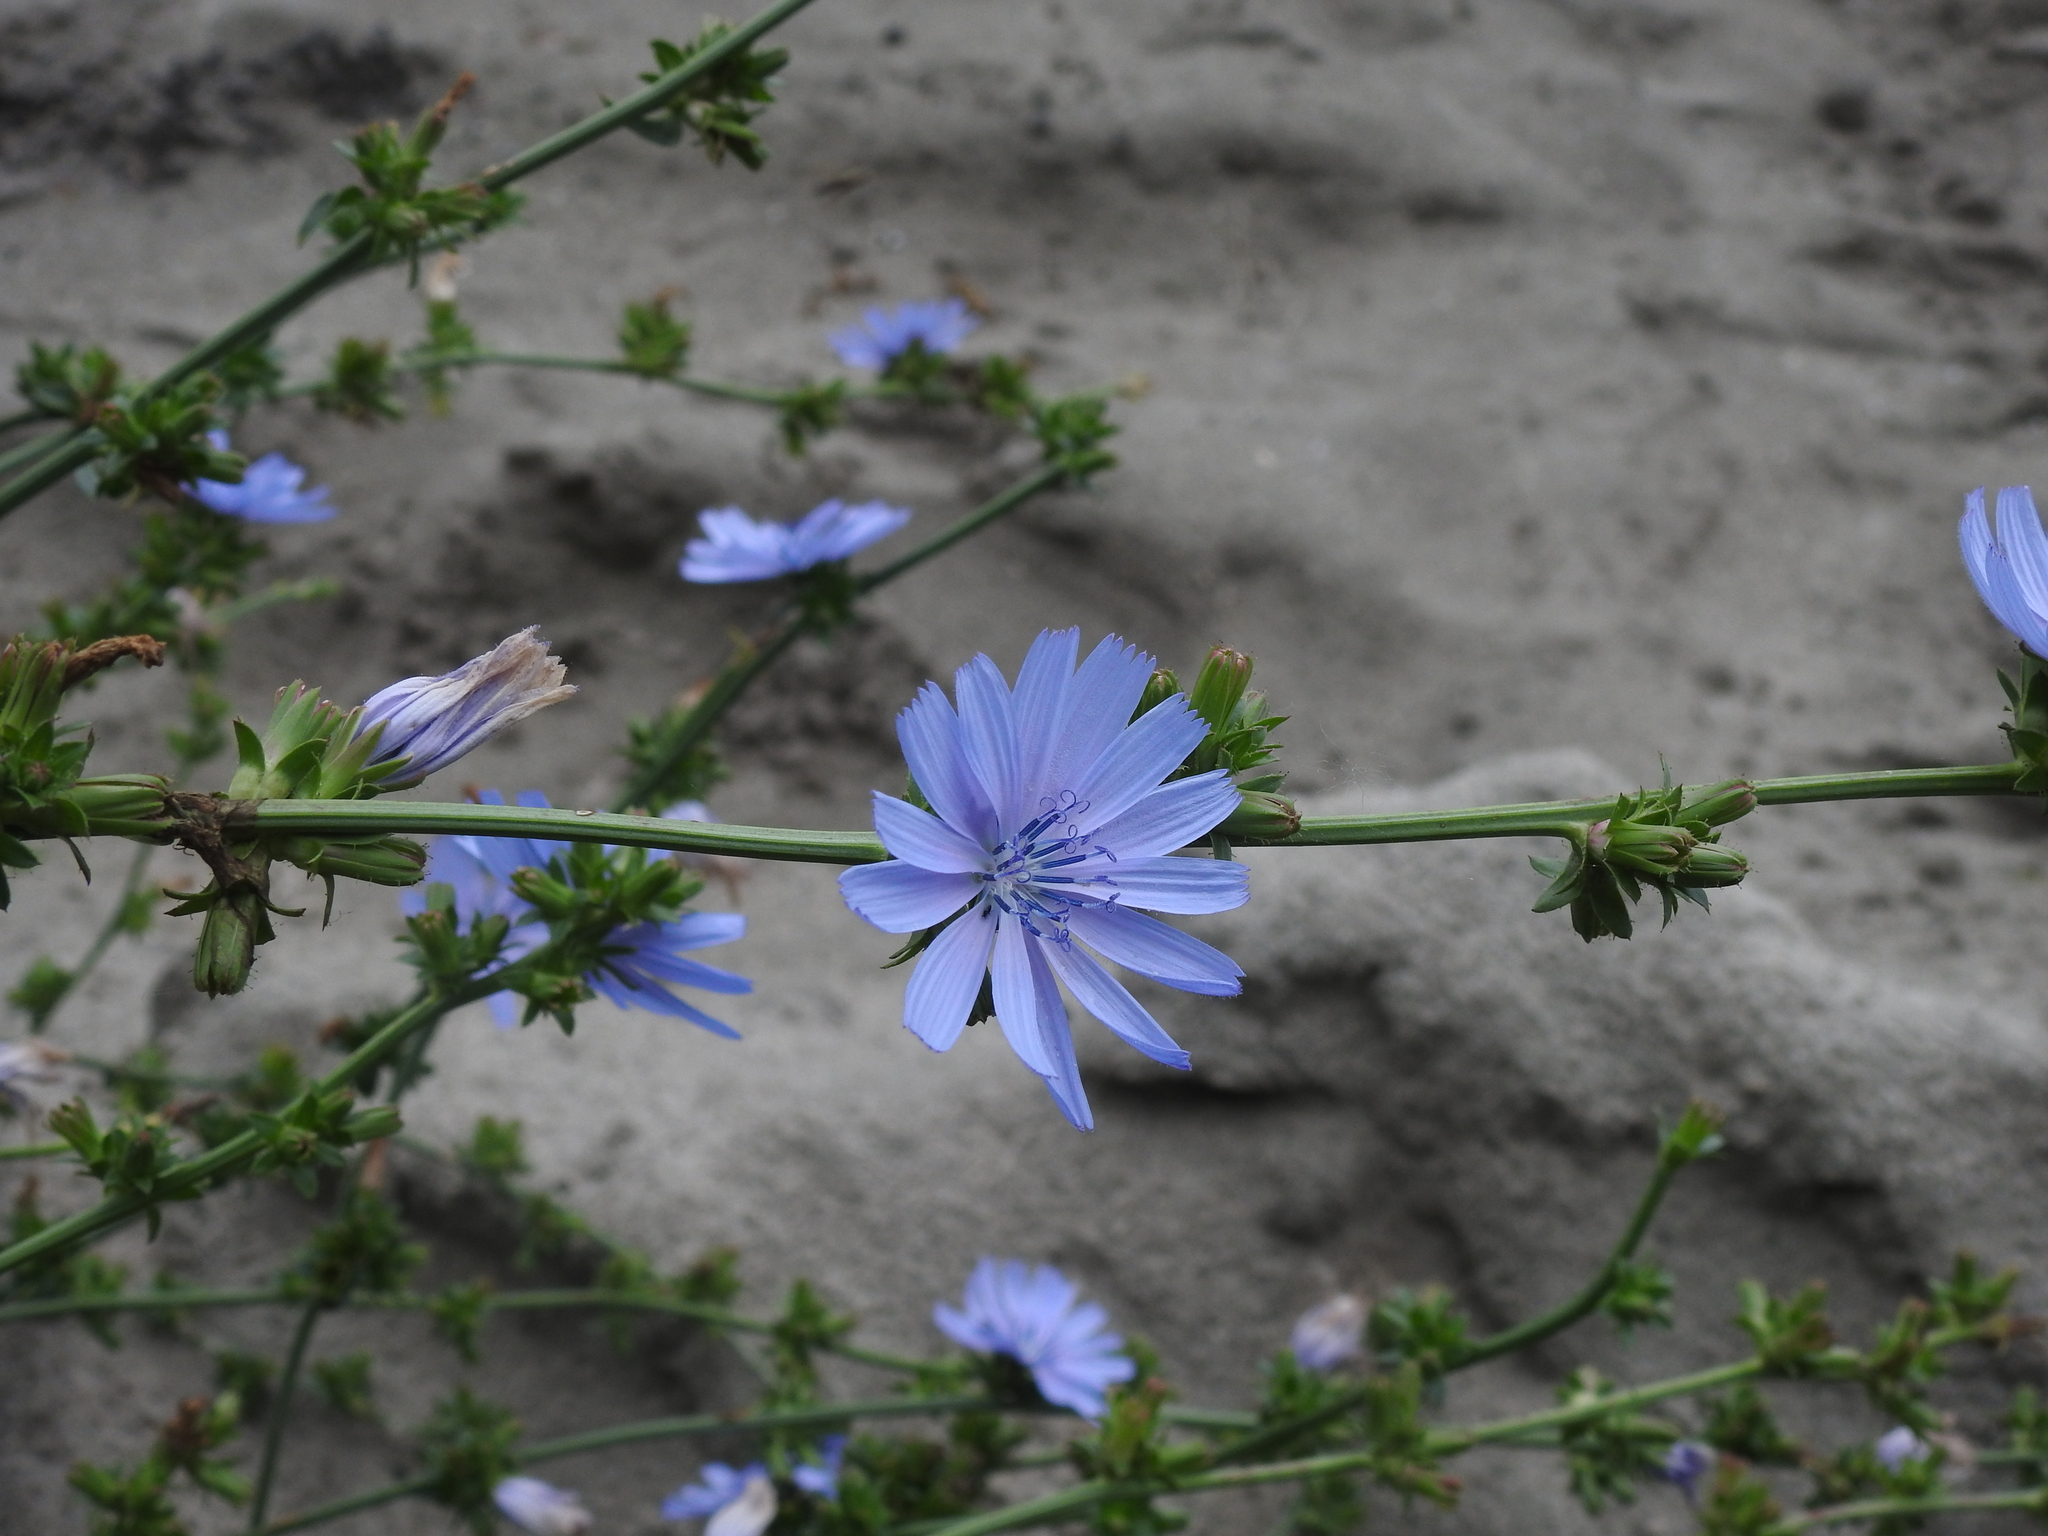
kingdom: Plantae
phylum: Tracheophyta
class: Magnoliopsida
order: Asterales
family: Asteraceae
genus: Cichorium
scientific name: Cichorium intybus
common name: Chicory
